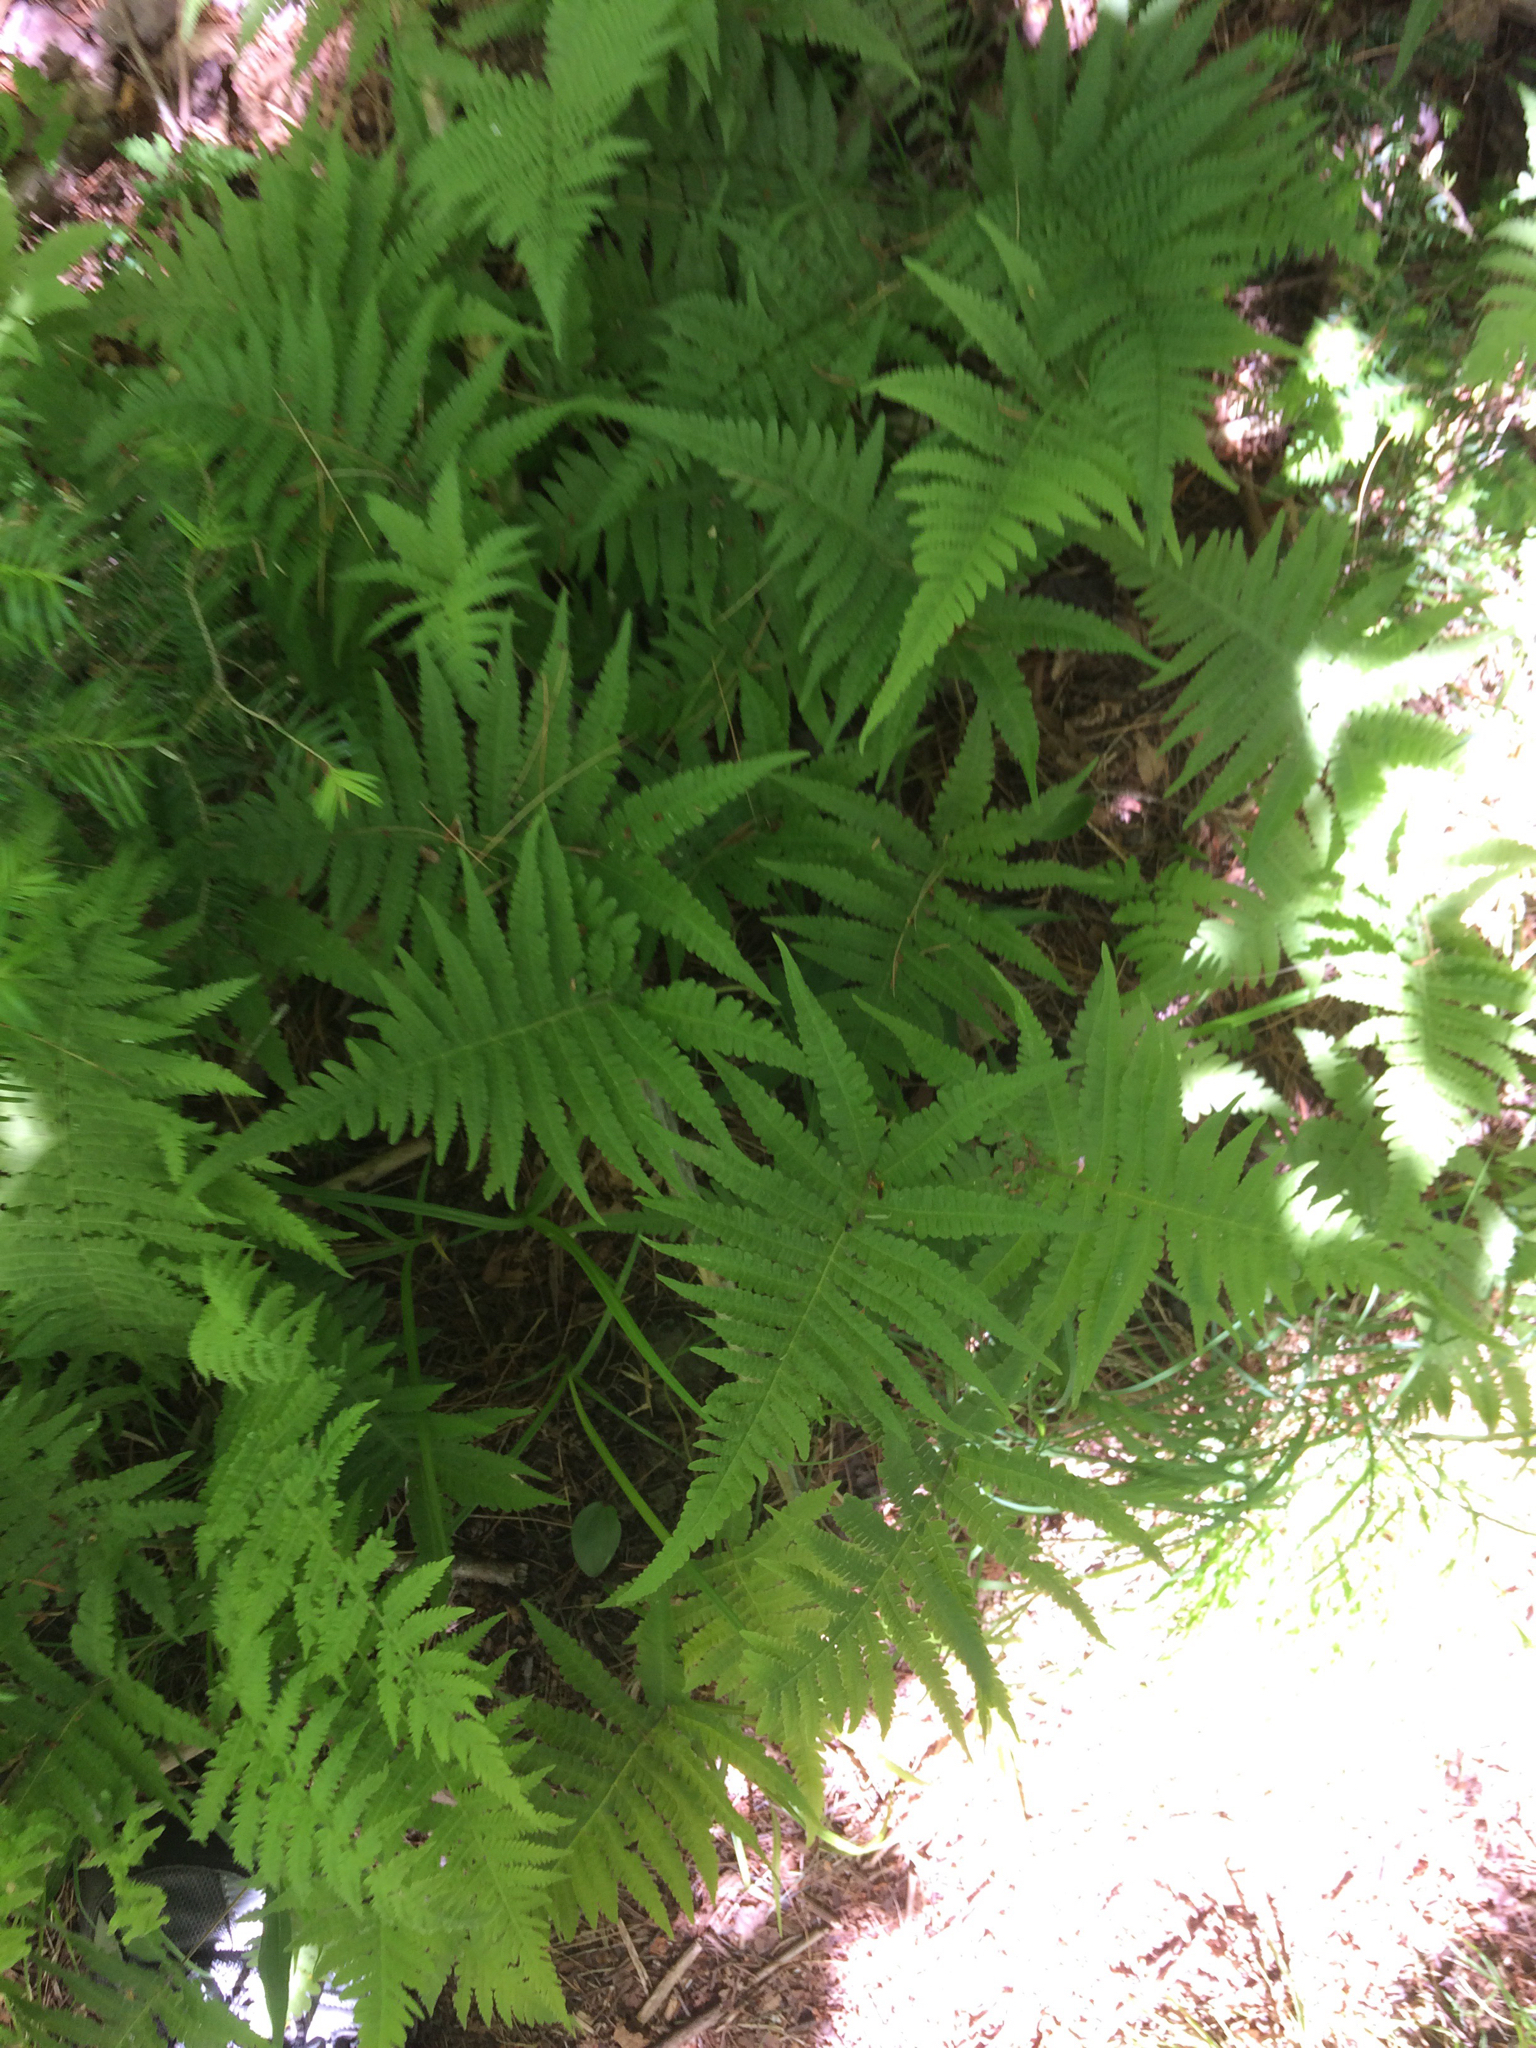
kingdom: Plantae
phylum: Tracheophyta
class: Polypodiopsida
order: Polypodiales
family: Thelypteridaceae
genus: Phegopteris
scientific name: Phegopteris connectilis
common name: Beech fern
